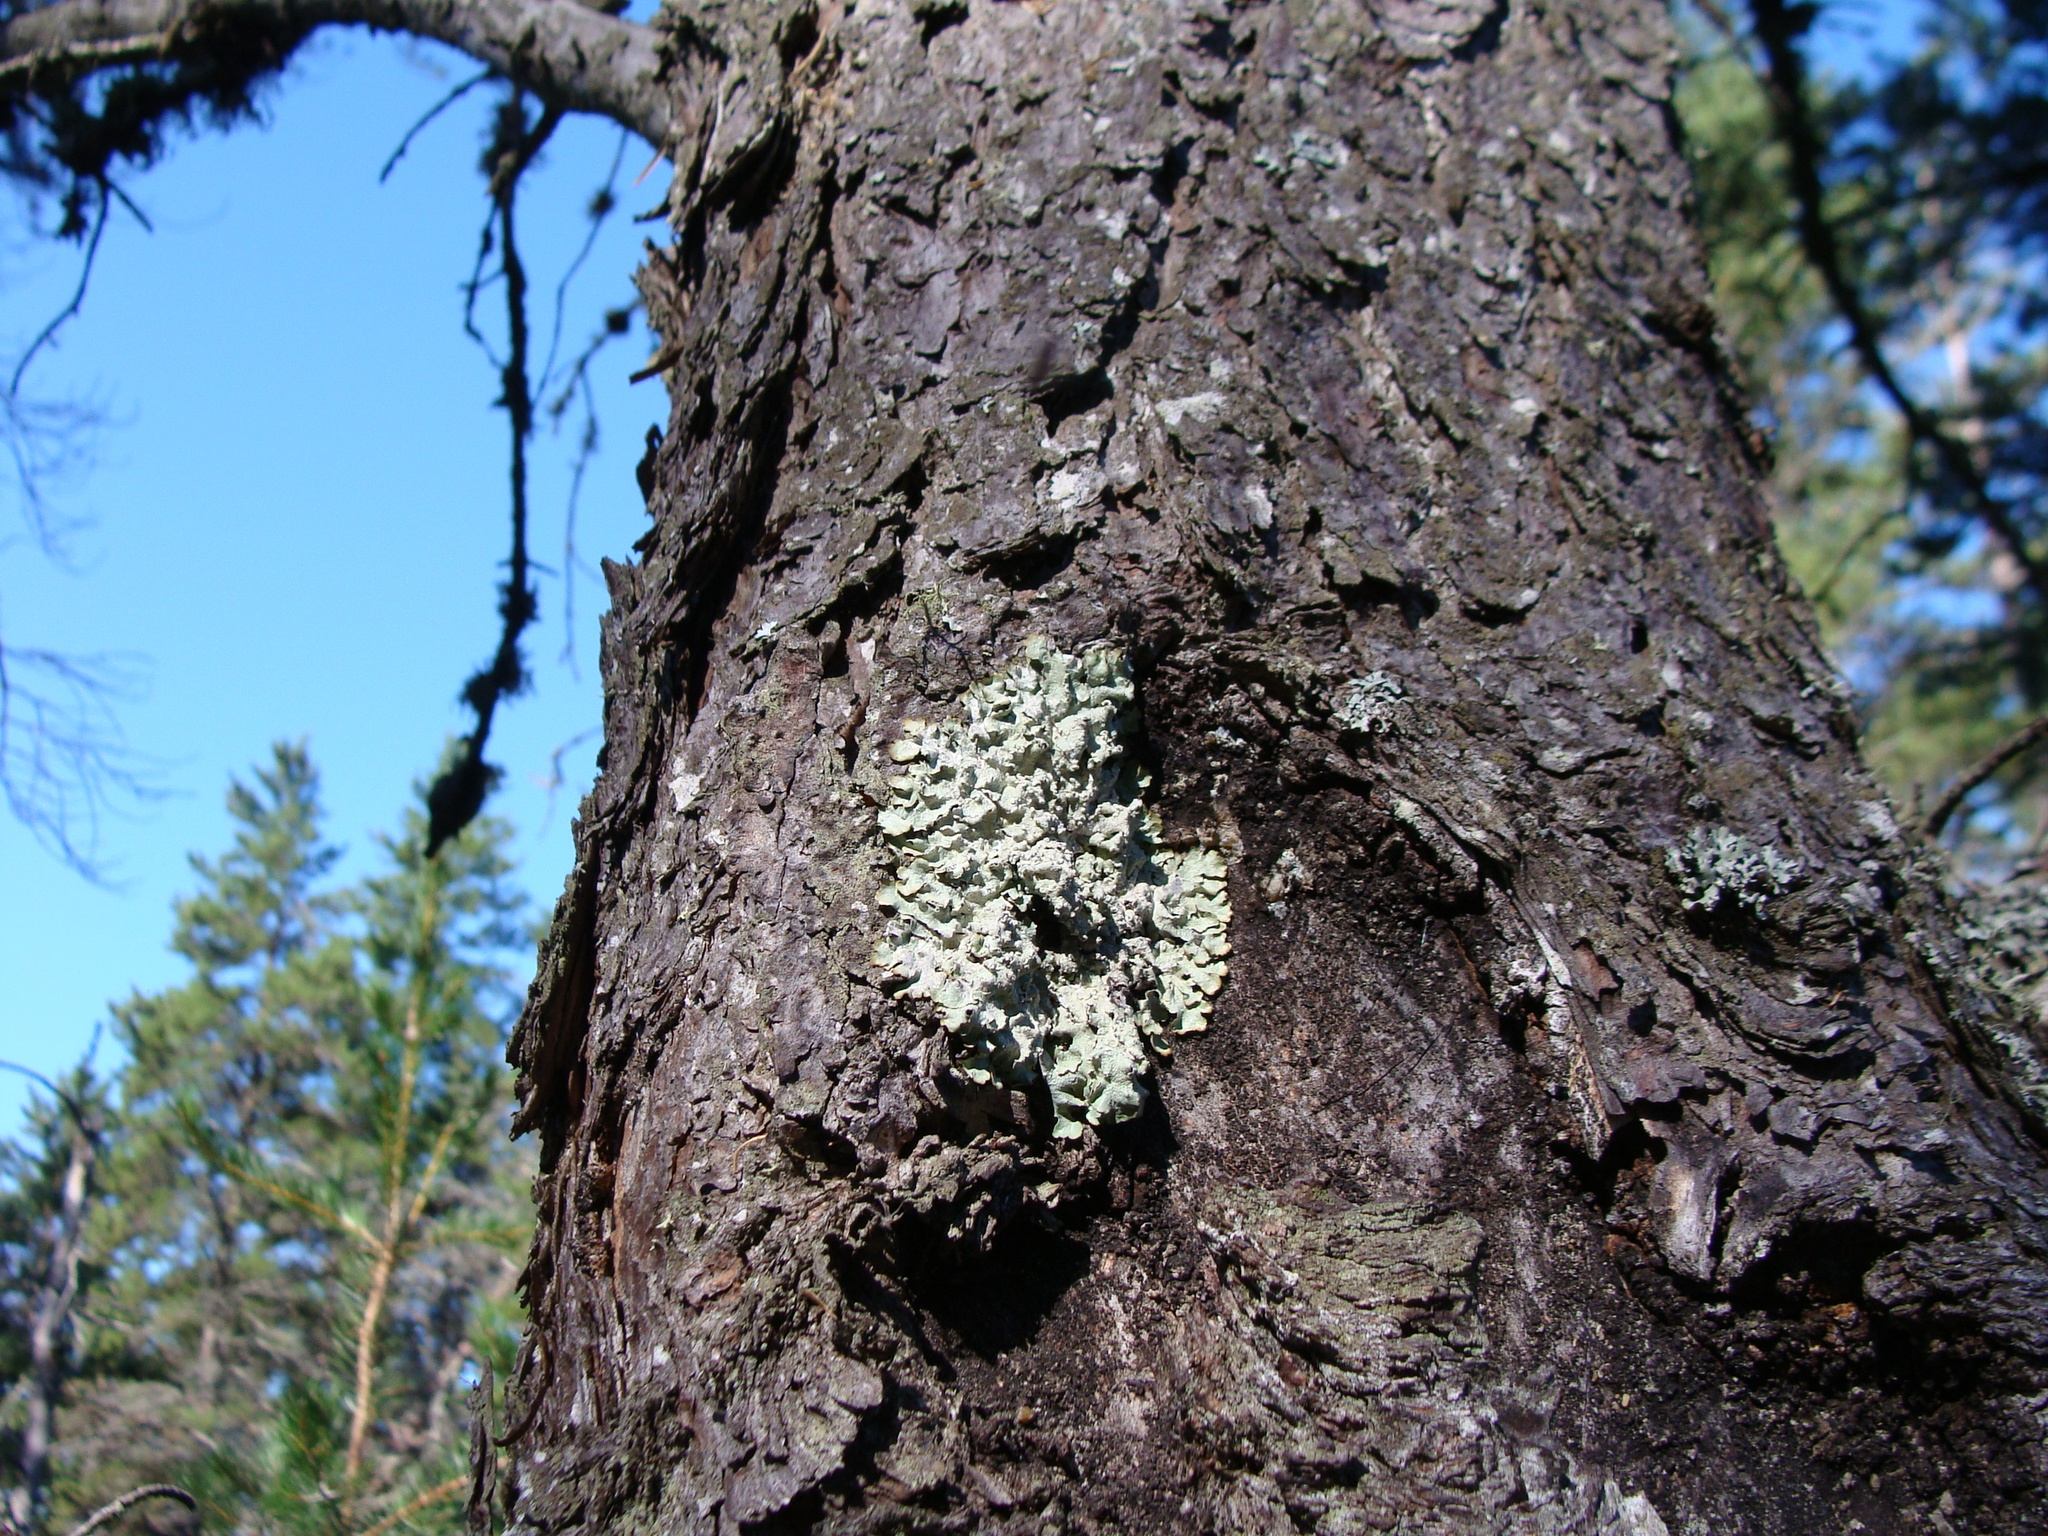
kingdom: Fungi
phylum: Ascomycota
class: Lecanoromycetes
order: Lecanorales
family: Parmeliaceae
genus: Flavopunctelia
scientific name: Flavopunctelia flaventior
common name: Speckled greenshield
